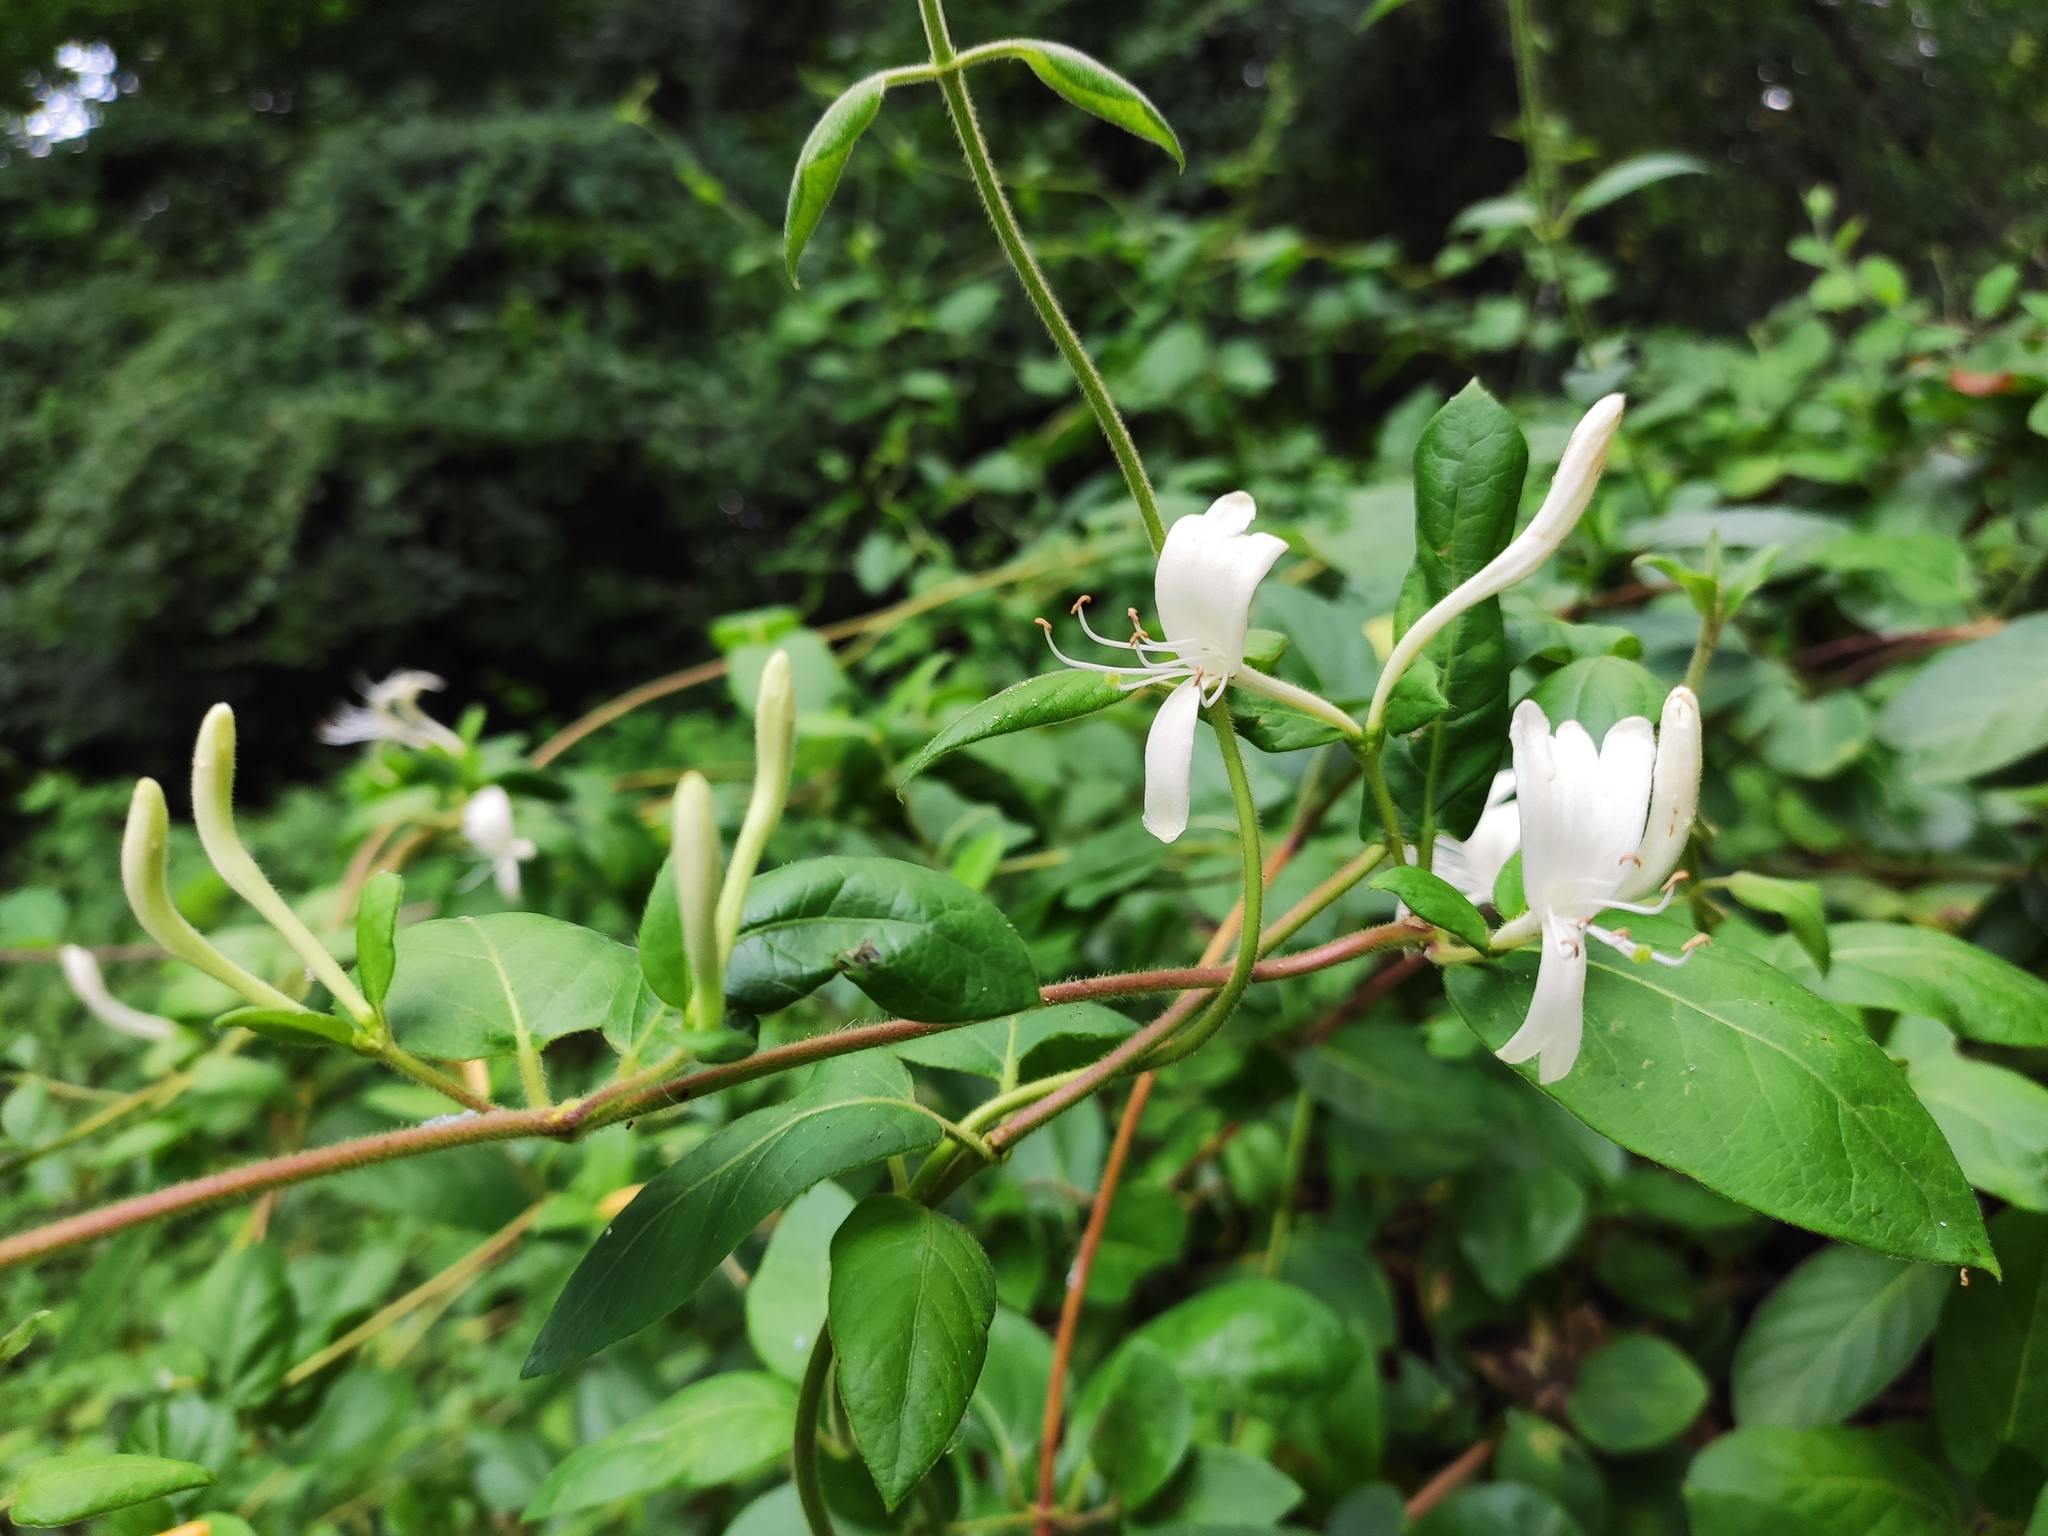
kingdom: Plantae
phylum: Tracheophyta
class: Magnoliopsida
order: Dipsacales
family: Caprifoliaceae
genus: Lonicera
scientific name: Lonicera caprifolium
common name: Perfoliate honeysuckle
